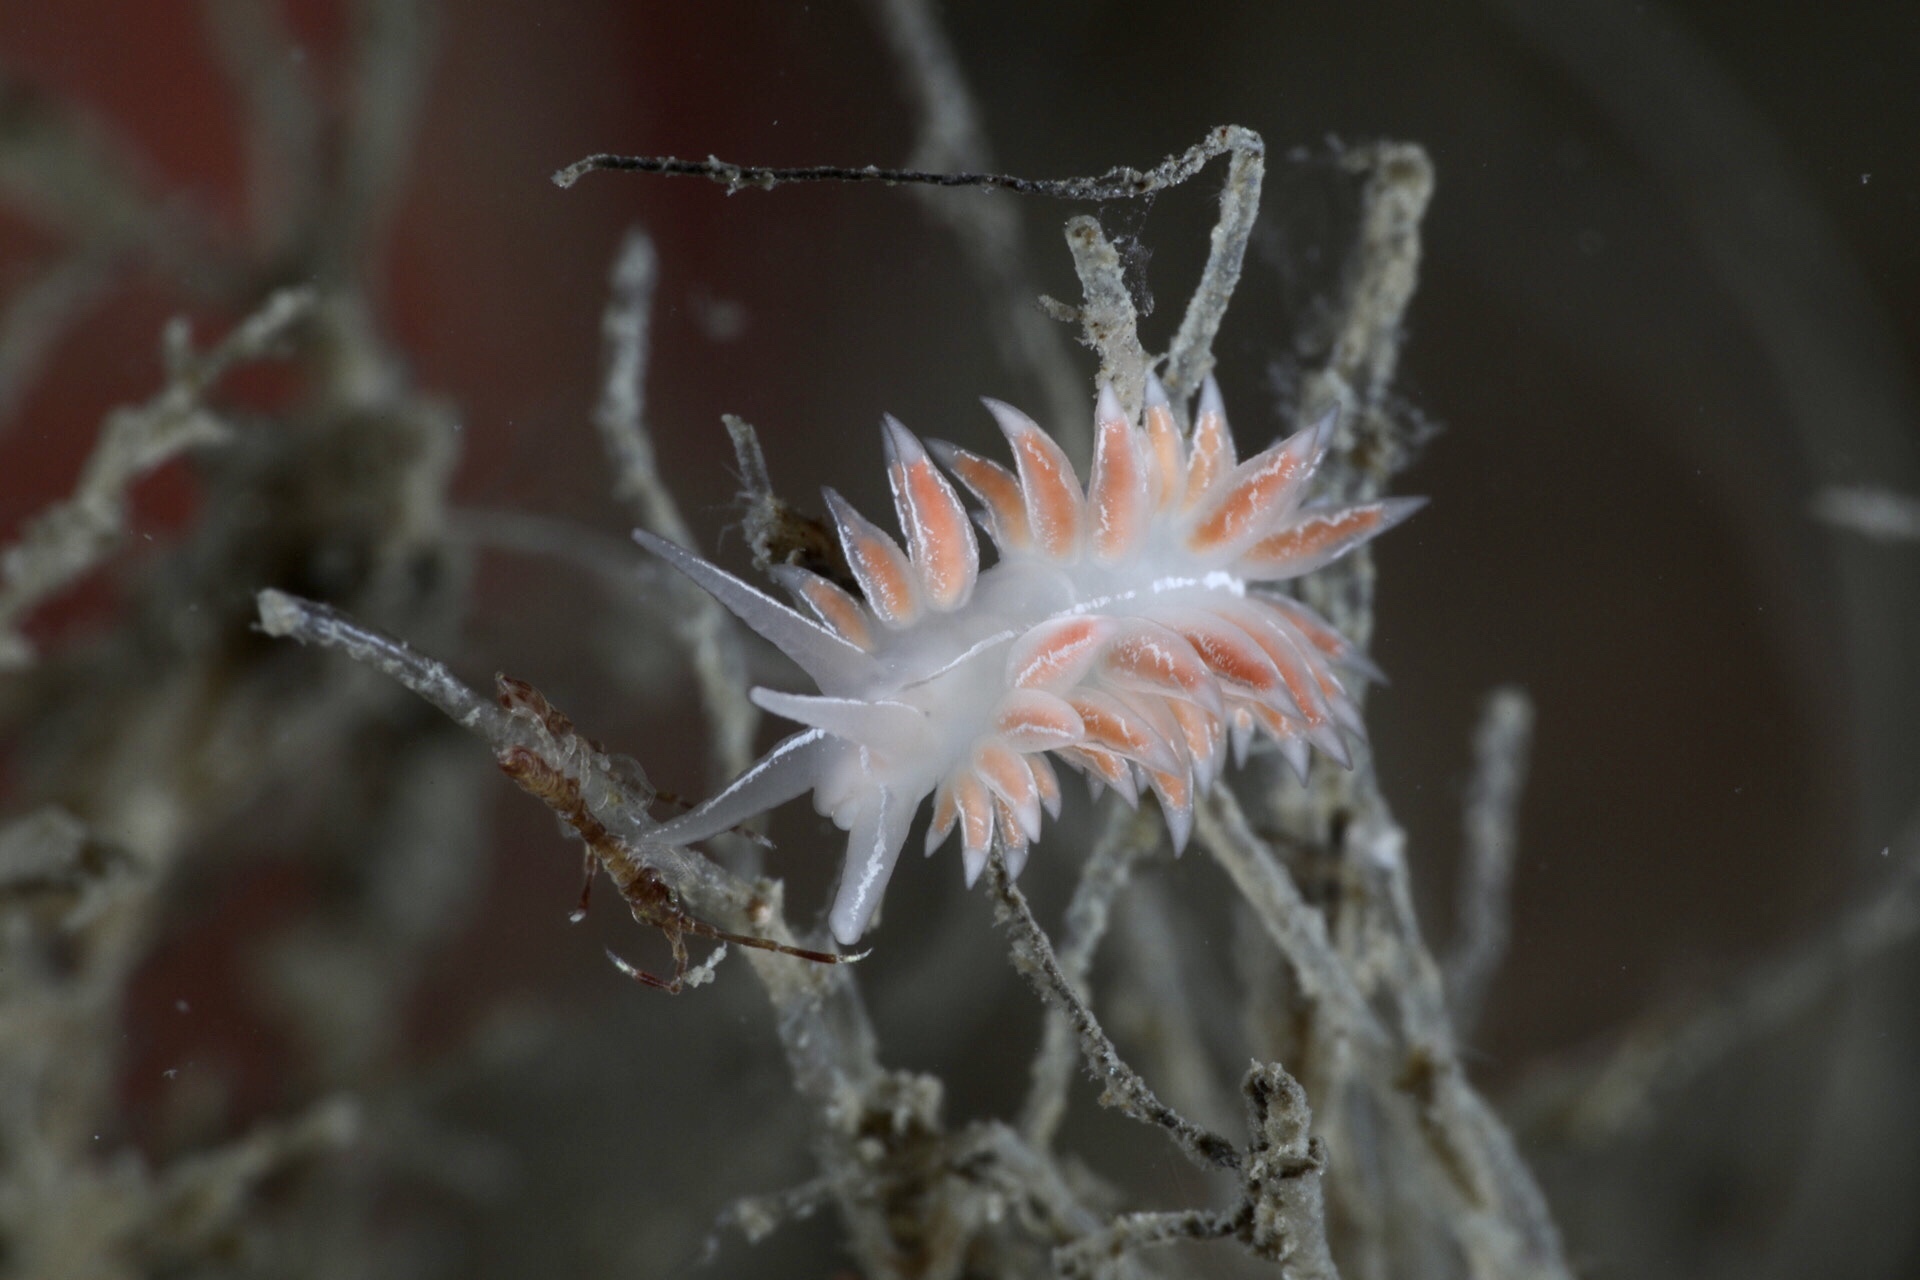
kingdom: Animalia
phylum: Mollusca
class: Gastropoda
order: Nudibranchia
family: Coryphellidae
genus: Coryphella
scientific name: Coryphella chriskaugei
